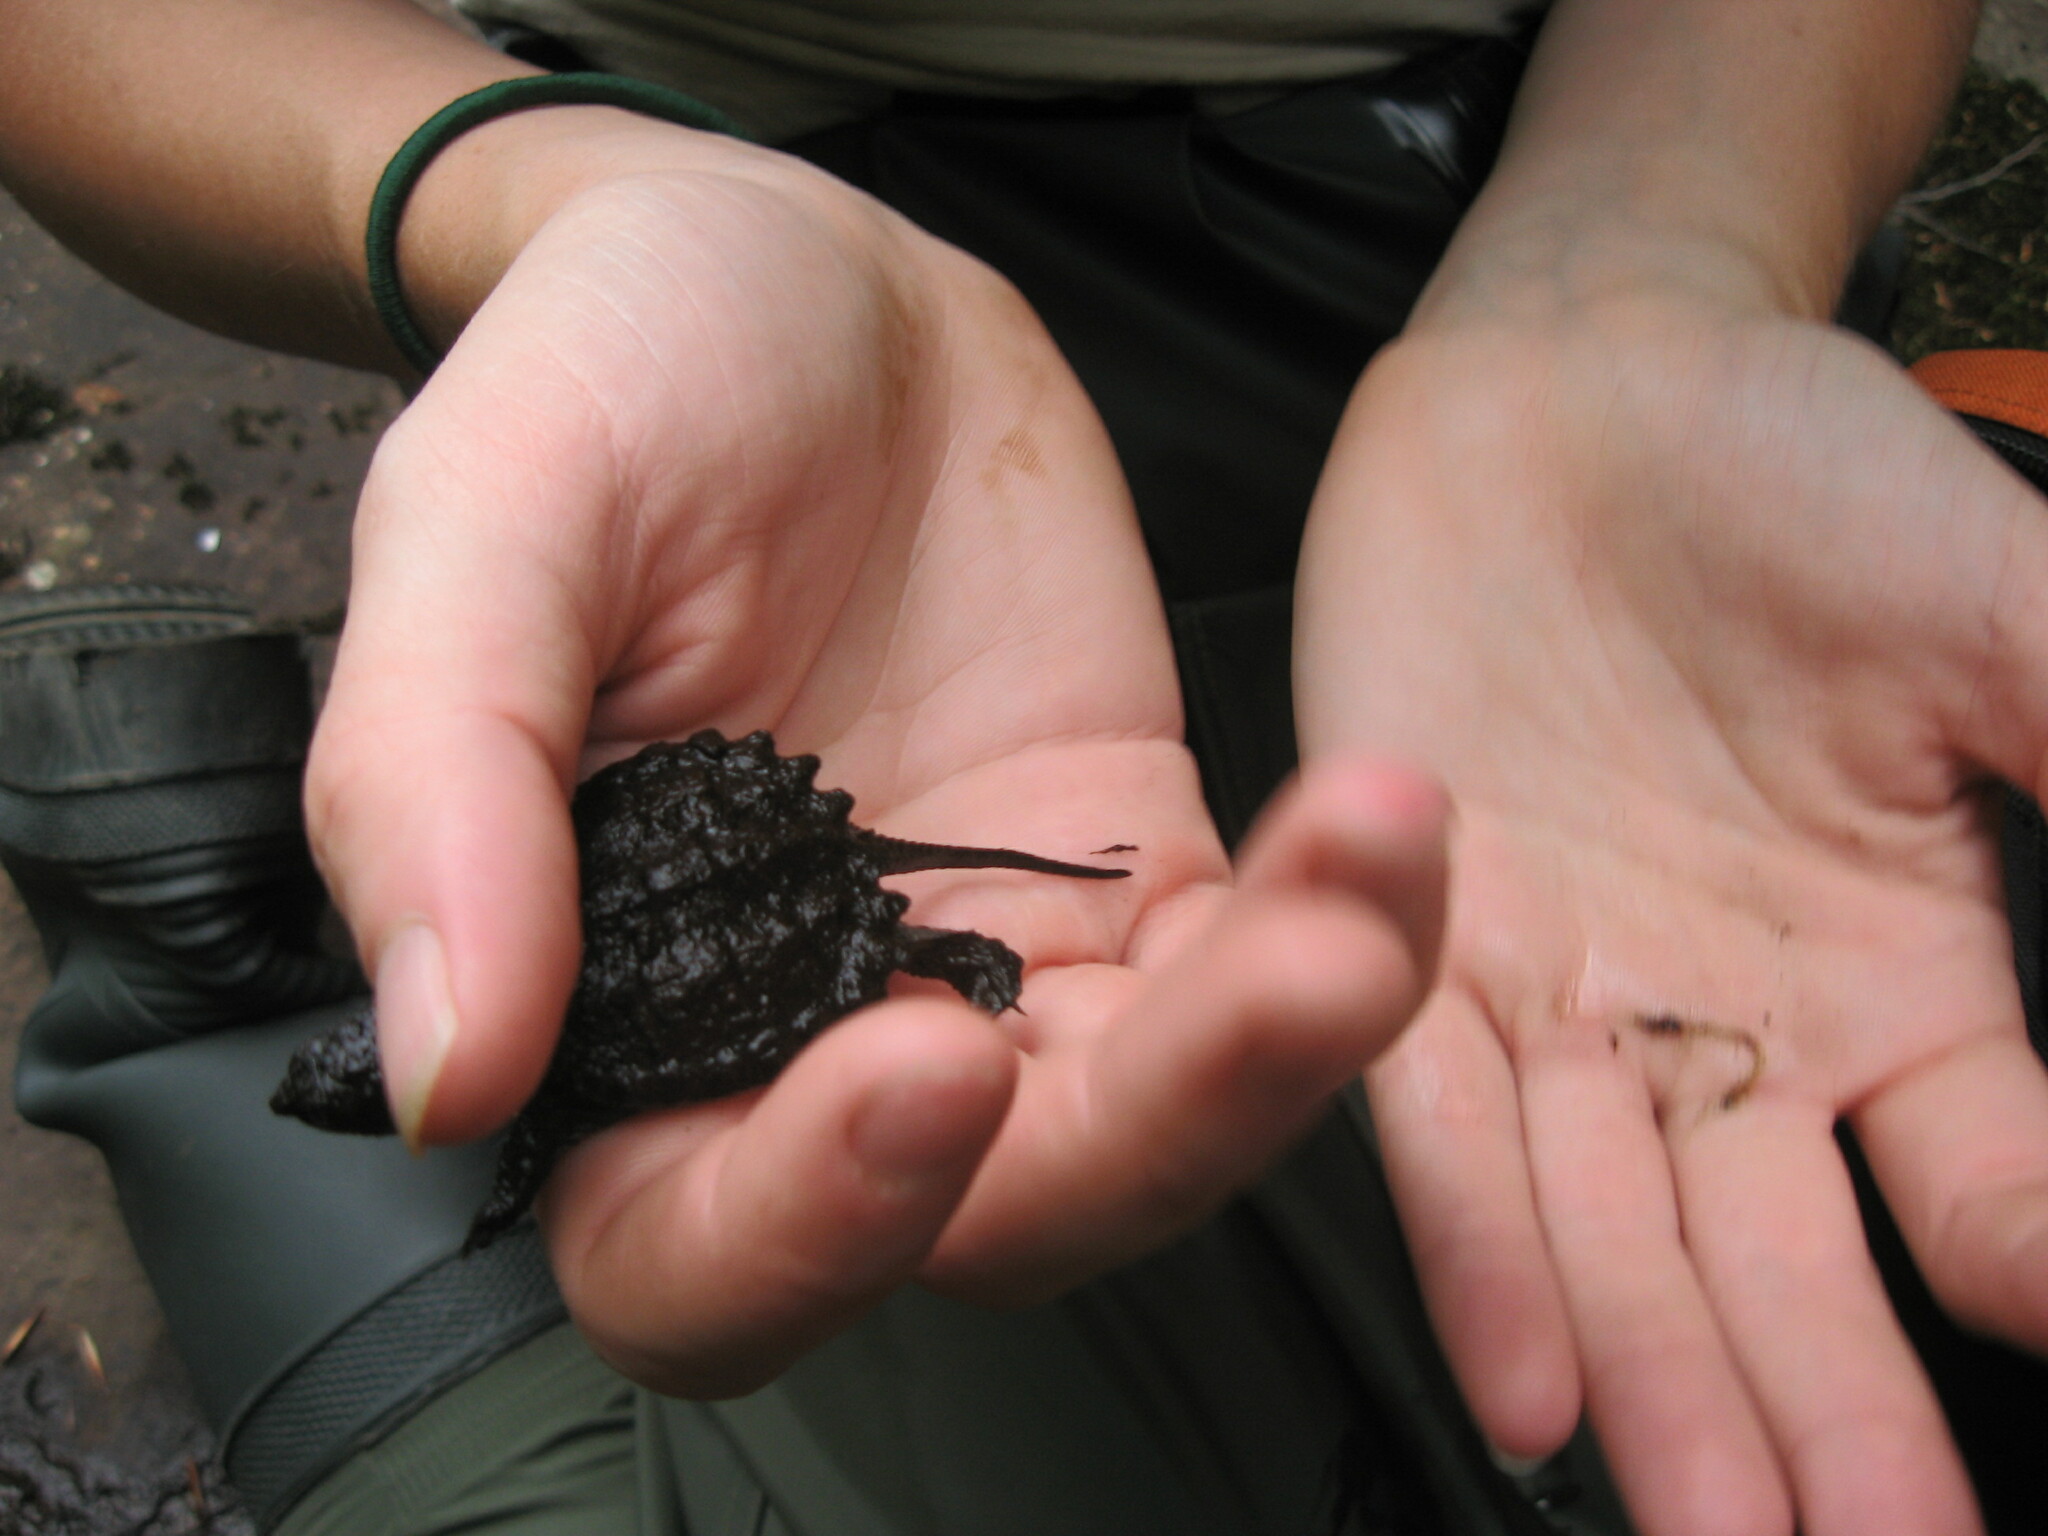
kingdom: Animalia
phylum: Chordata
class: Testudines
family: Chelydridae
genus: Chelydra
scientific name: Chelydra serpentina
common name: Common snapping turtle
